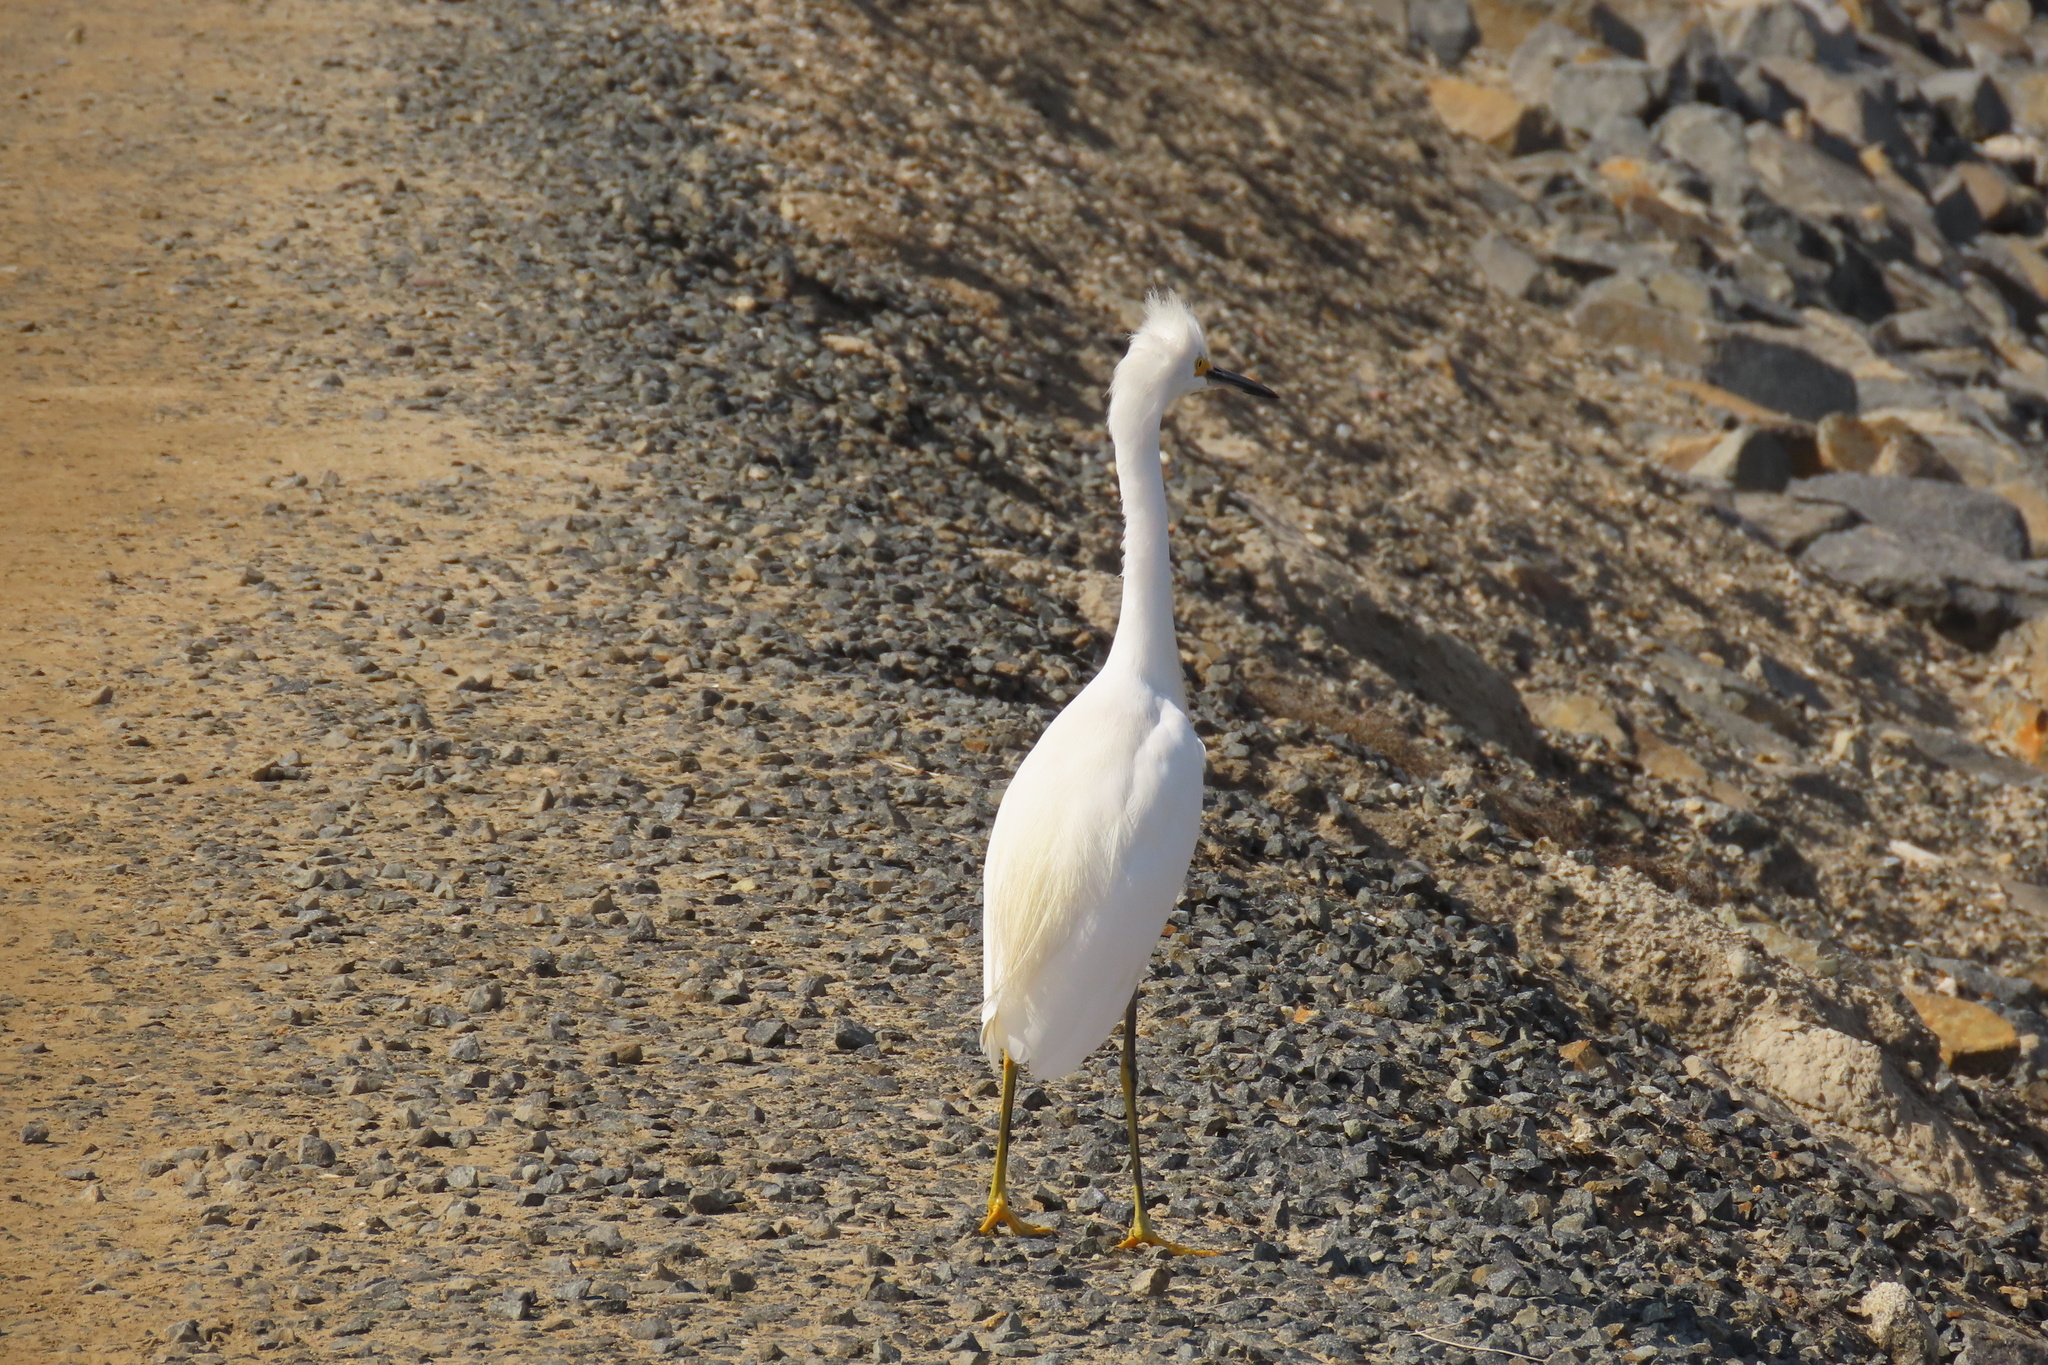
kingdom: Animalia
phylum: Chordata
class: Aves
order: Pelecaniformes
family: Ardeidae
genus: Egretta
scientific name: Egretta thula
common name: Snowy egret
